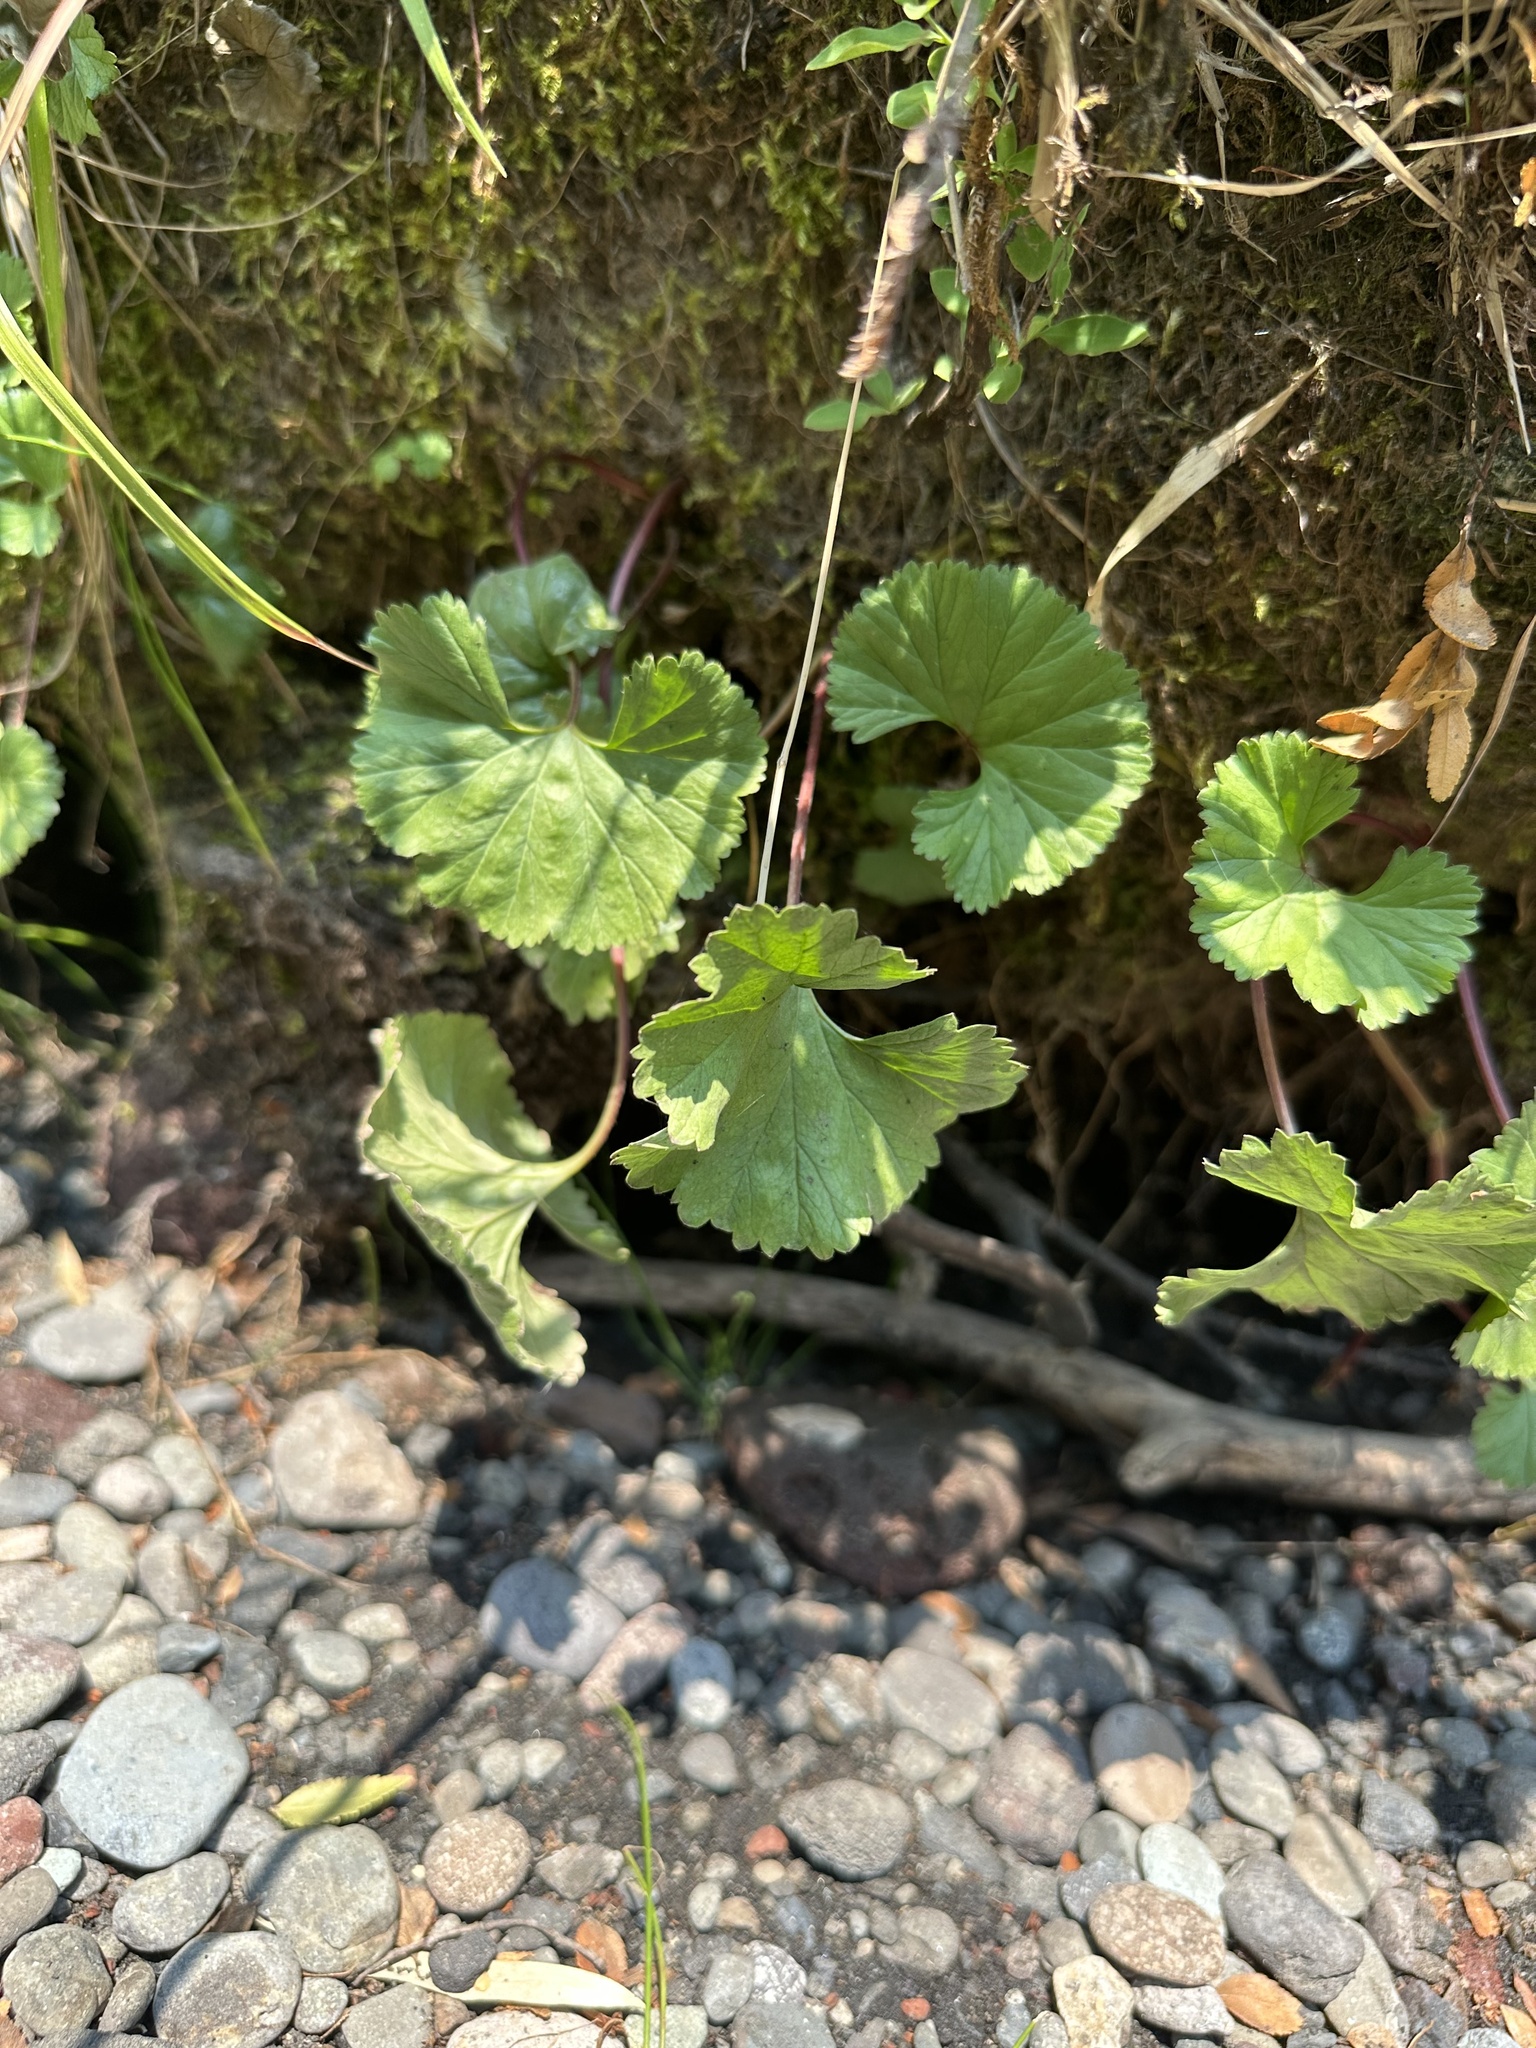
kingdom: Plantae
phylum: Tracheophyta
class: Magnoliopsida
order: Gunnerales
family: Gunneraceae
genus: Gunnera
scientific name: Gunnera magellanica
